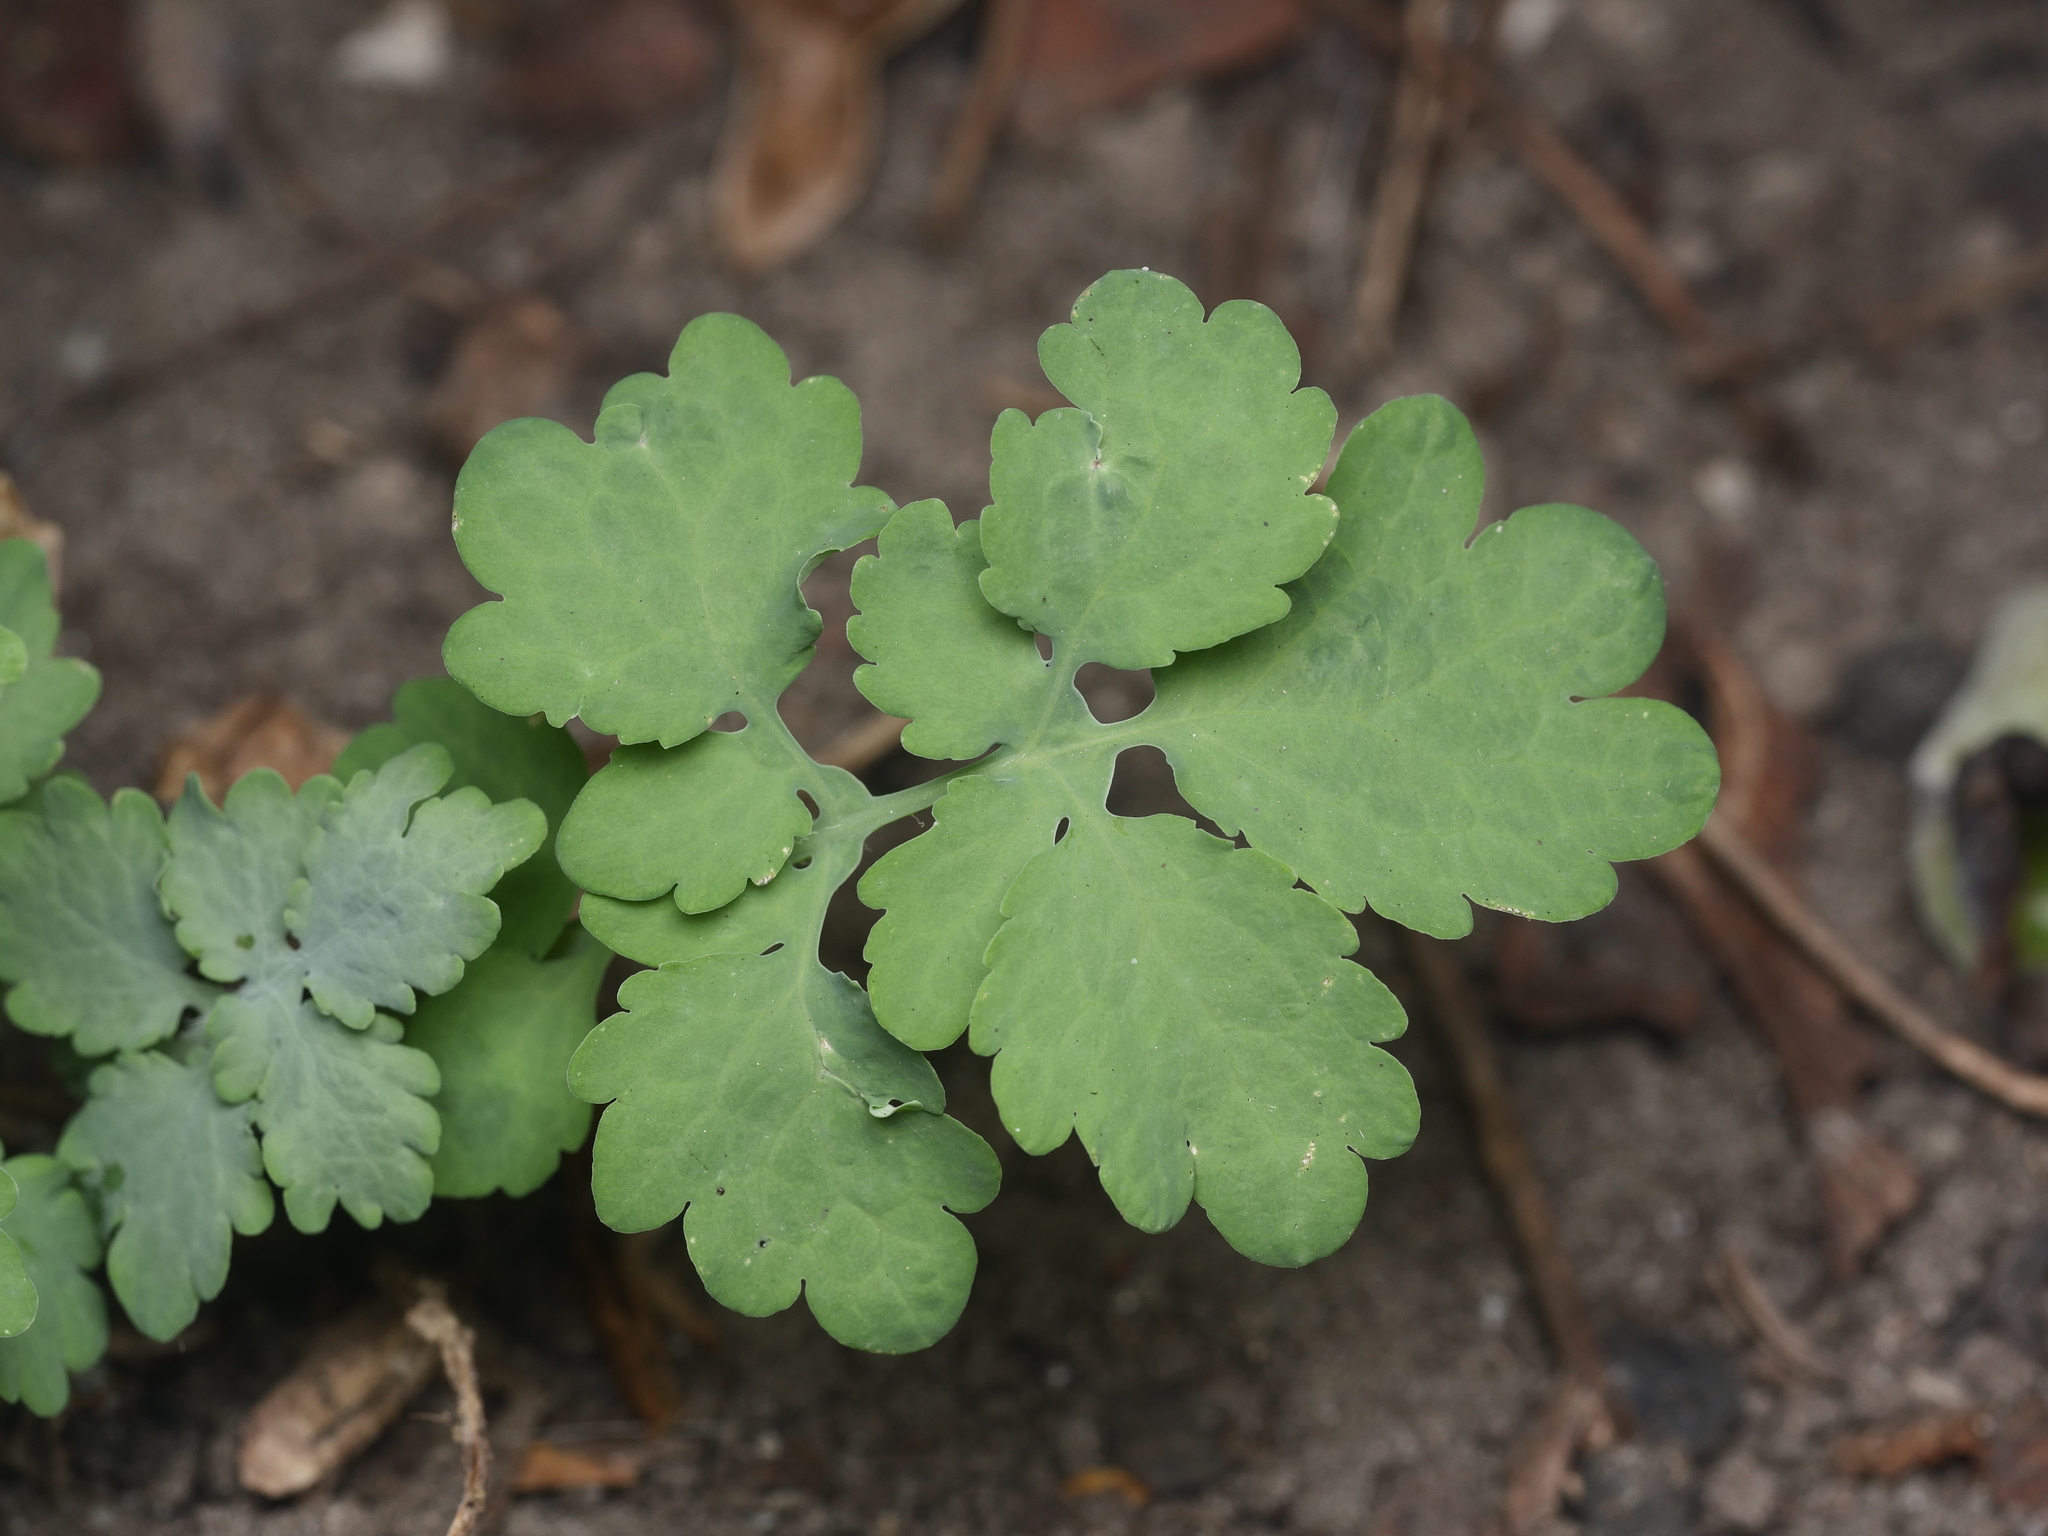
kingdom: Plantae
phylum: Tracheophyta
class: Magnoliopsida
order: Ranunculales
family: Papaveraceae
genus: Chelidonium
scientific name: Chelidonium majus
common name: Greater celandine
